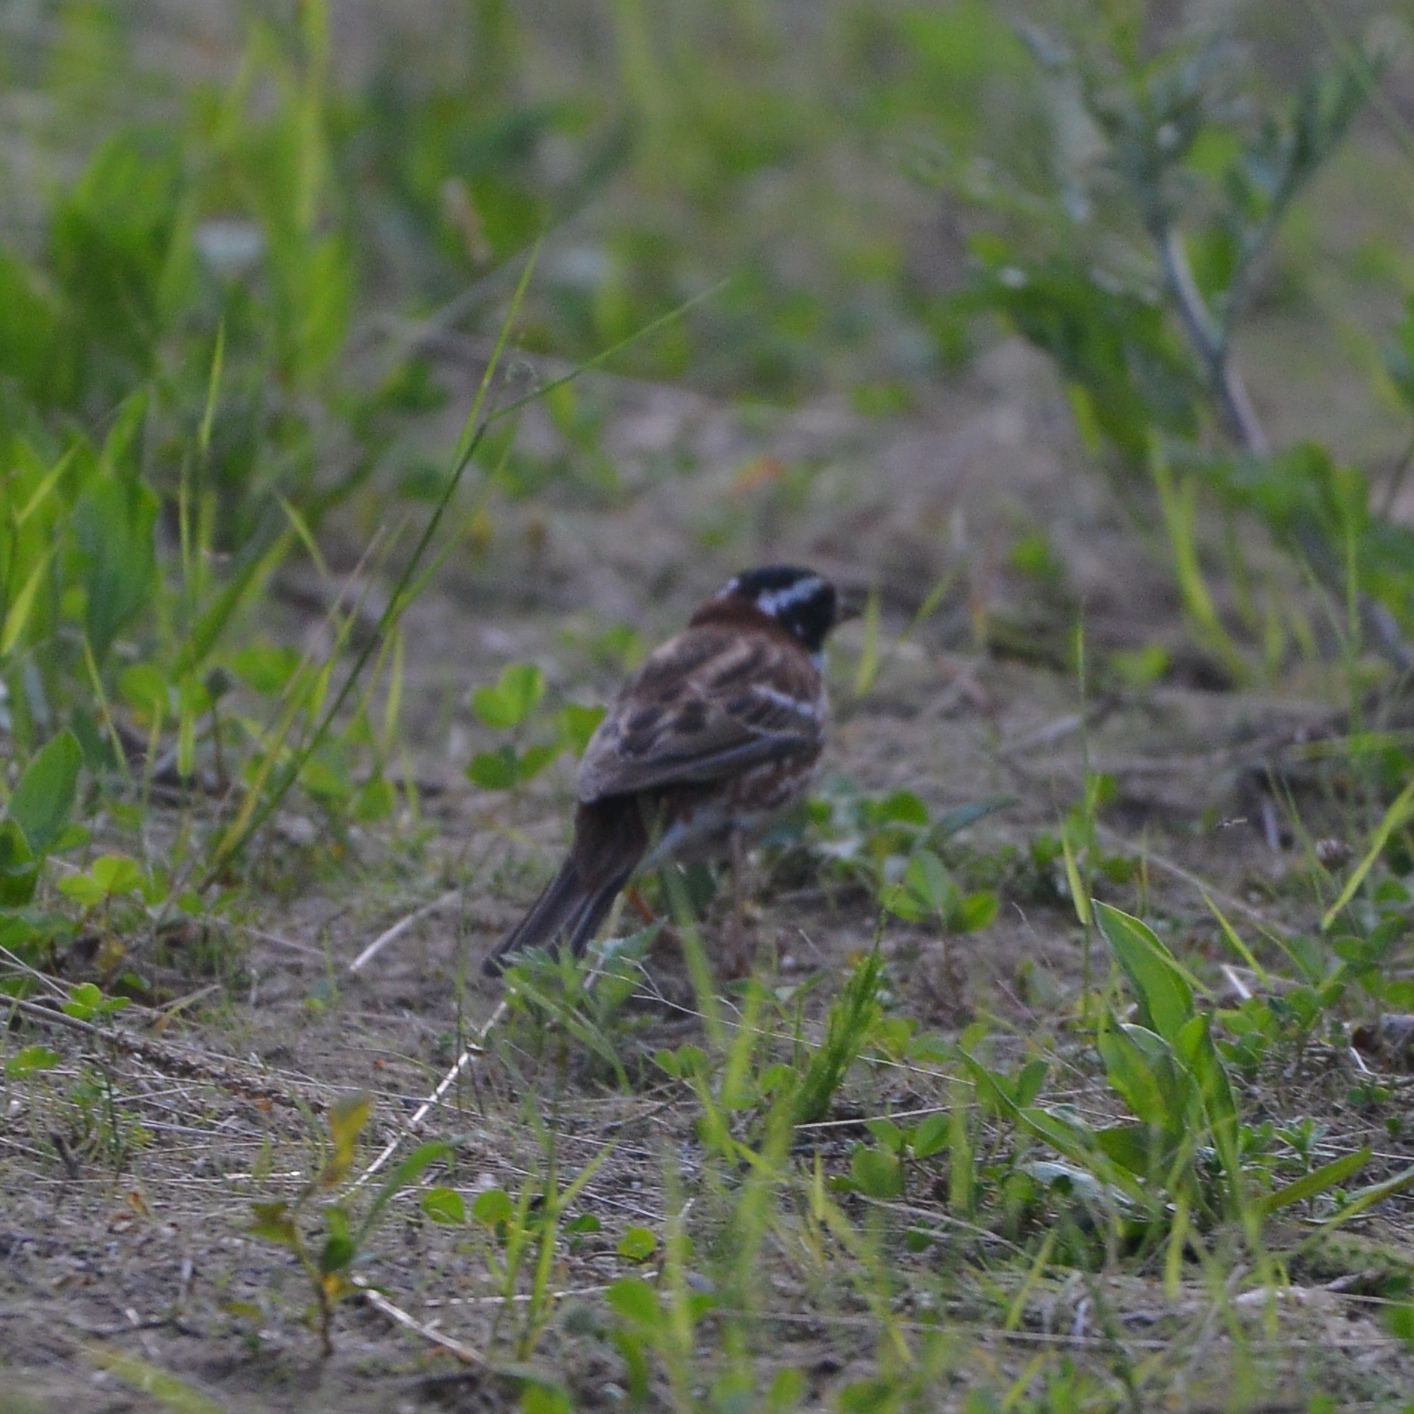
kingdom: Animalia
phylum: Chordata
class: Aves
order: Passeriformes
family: Emberizidae
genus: Emberiza
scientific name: Emberiza rustica
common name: Rustic bunting
